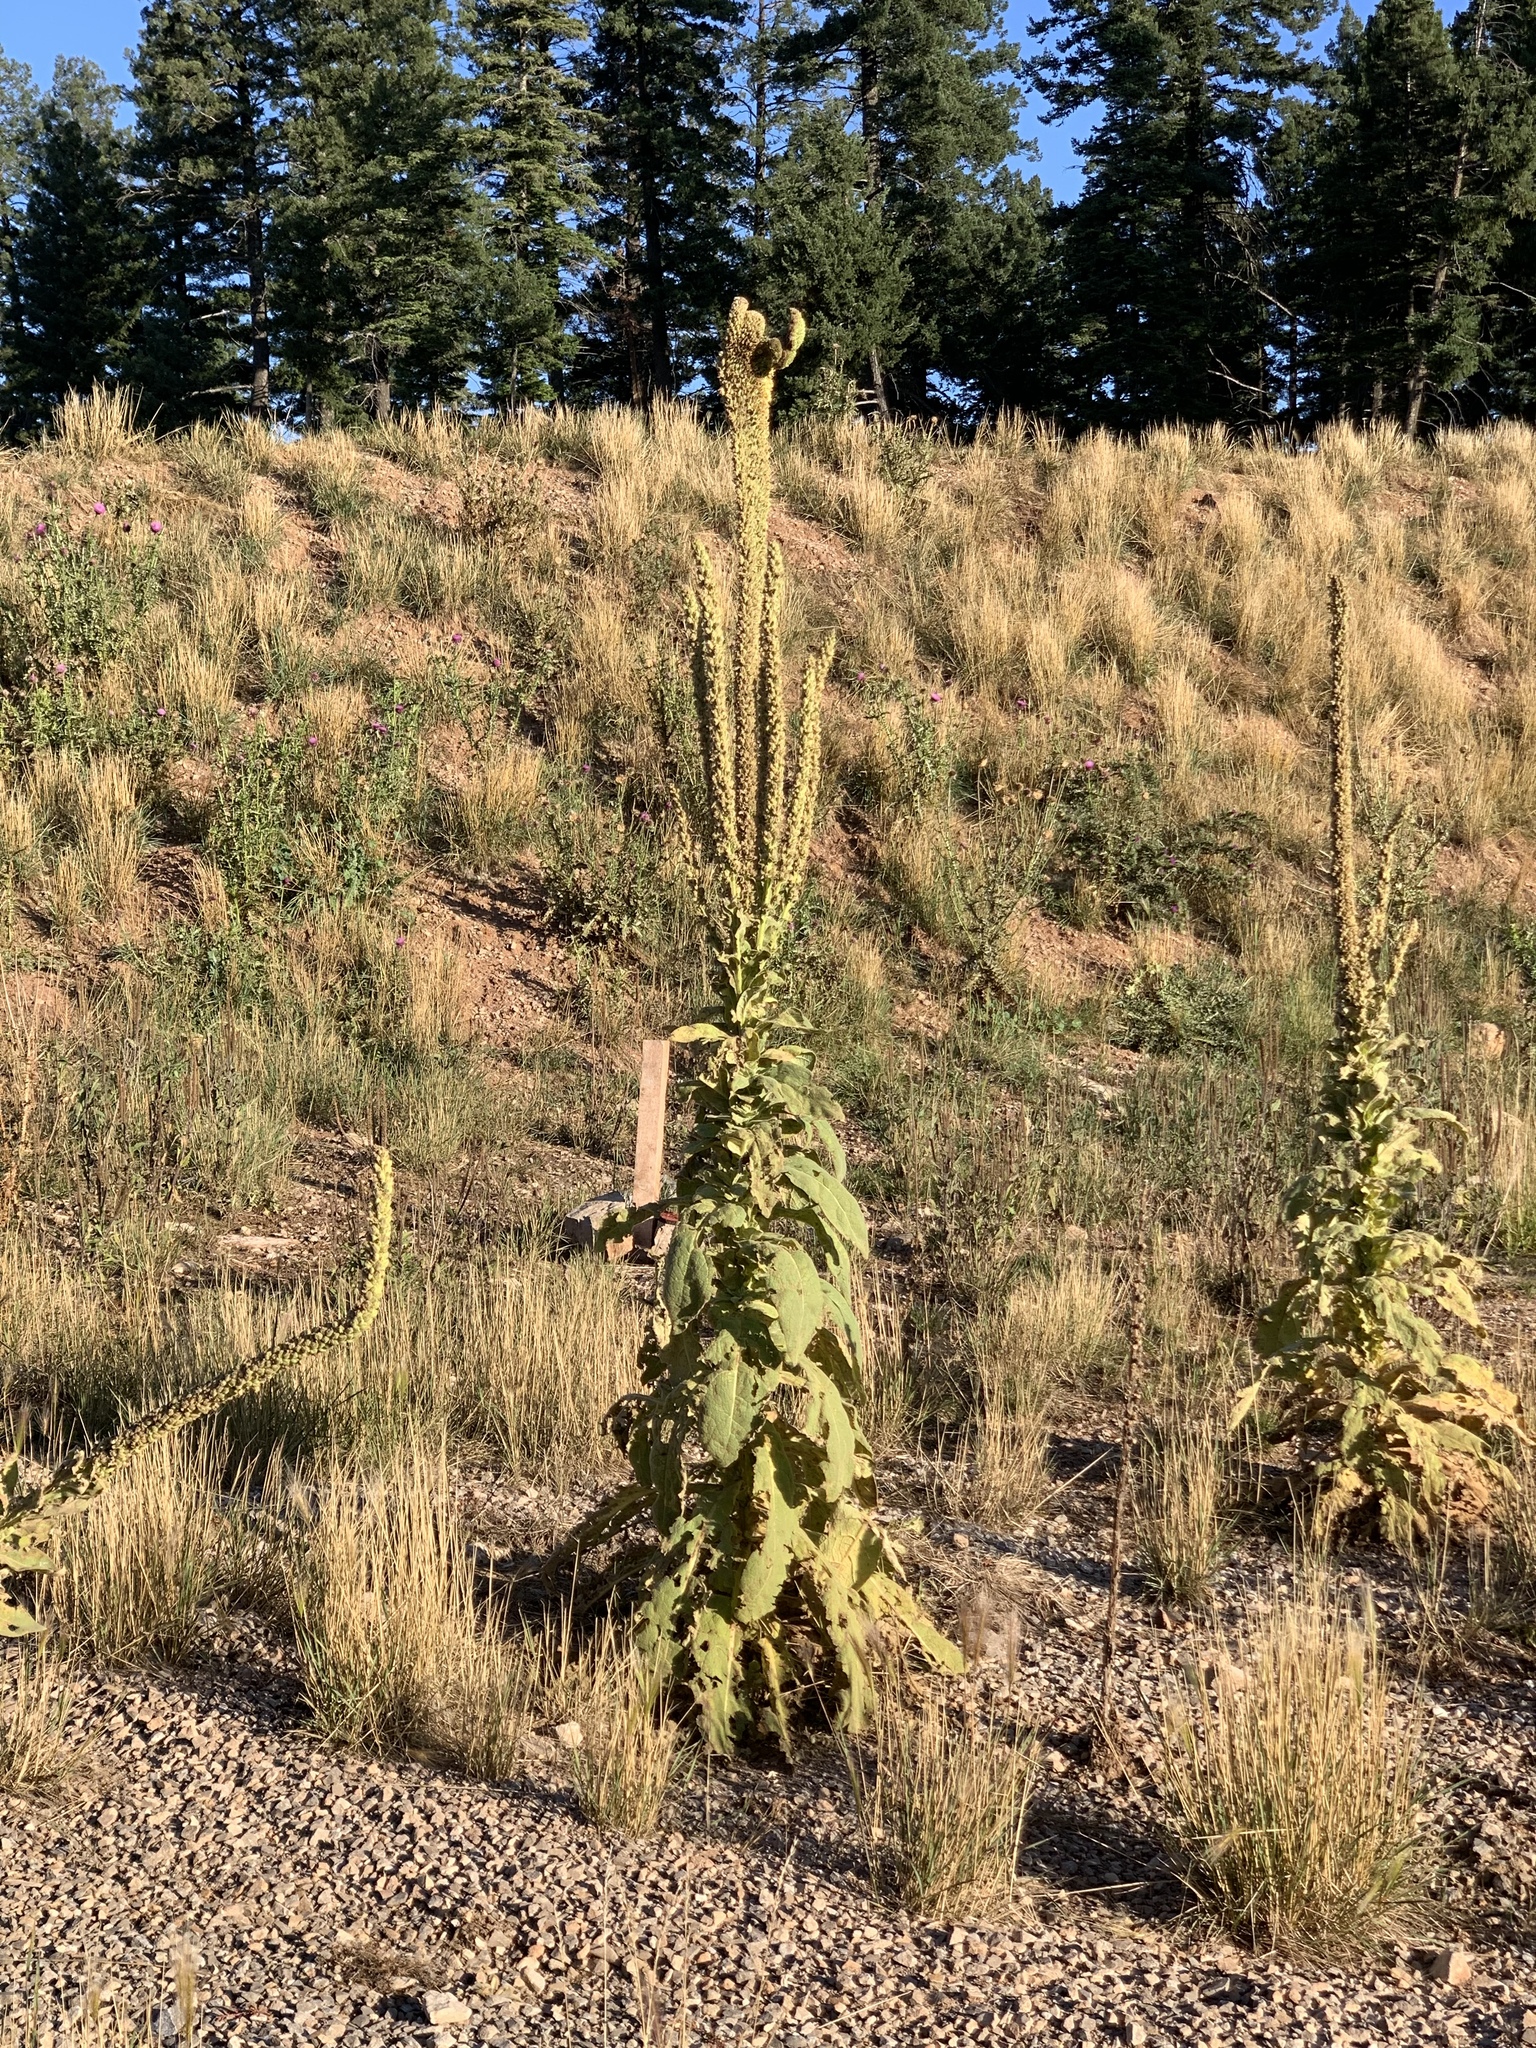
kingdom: Plantae
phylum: Tracheophyta
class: Magnoliopsida
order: Lamiales
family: Scrophulariaceae
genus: Verbascum
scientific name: Verbascum thapsus
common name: Common mullein
